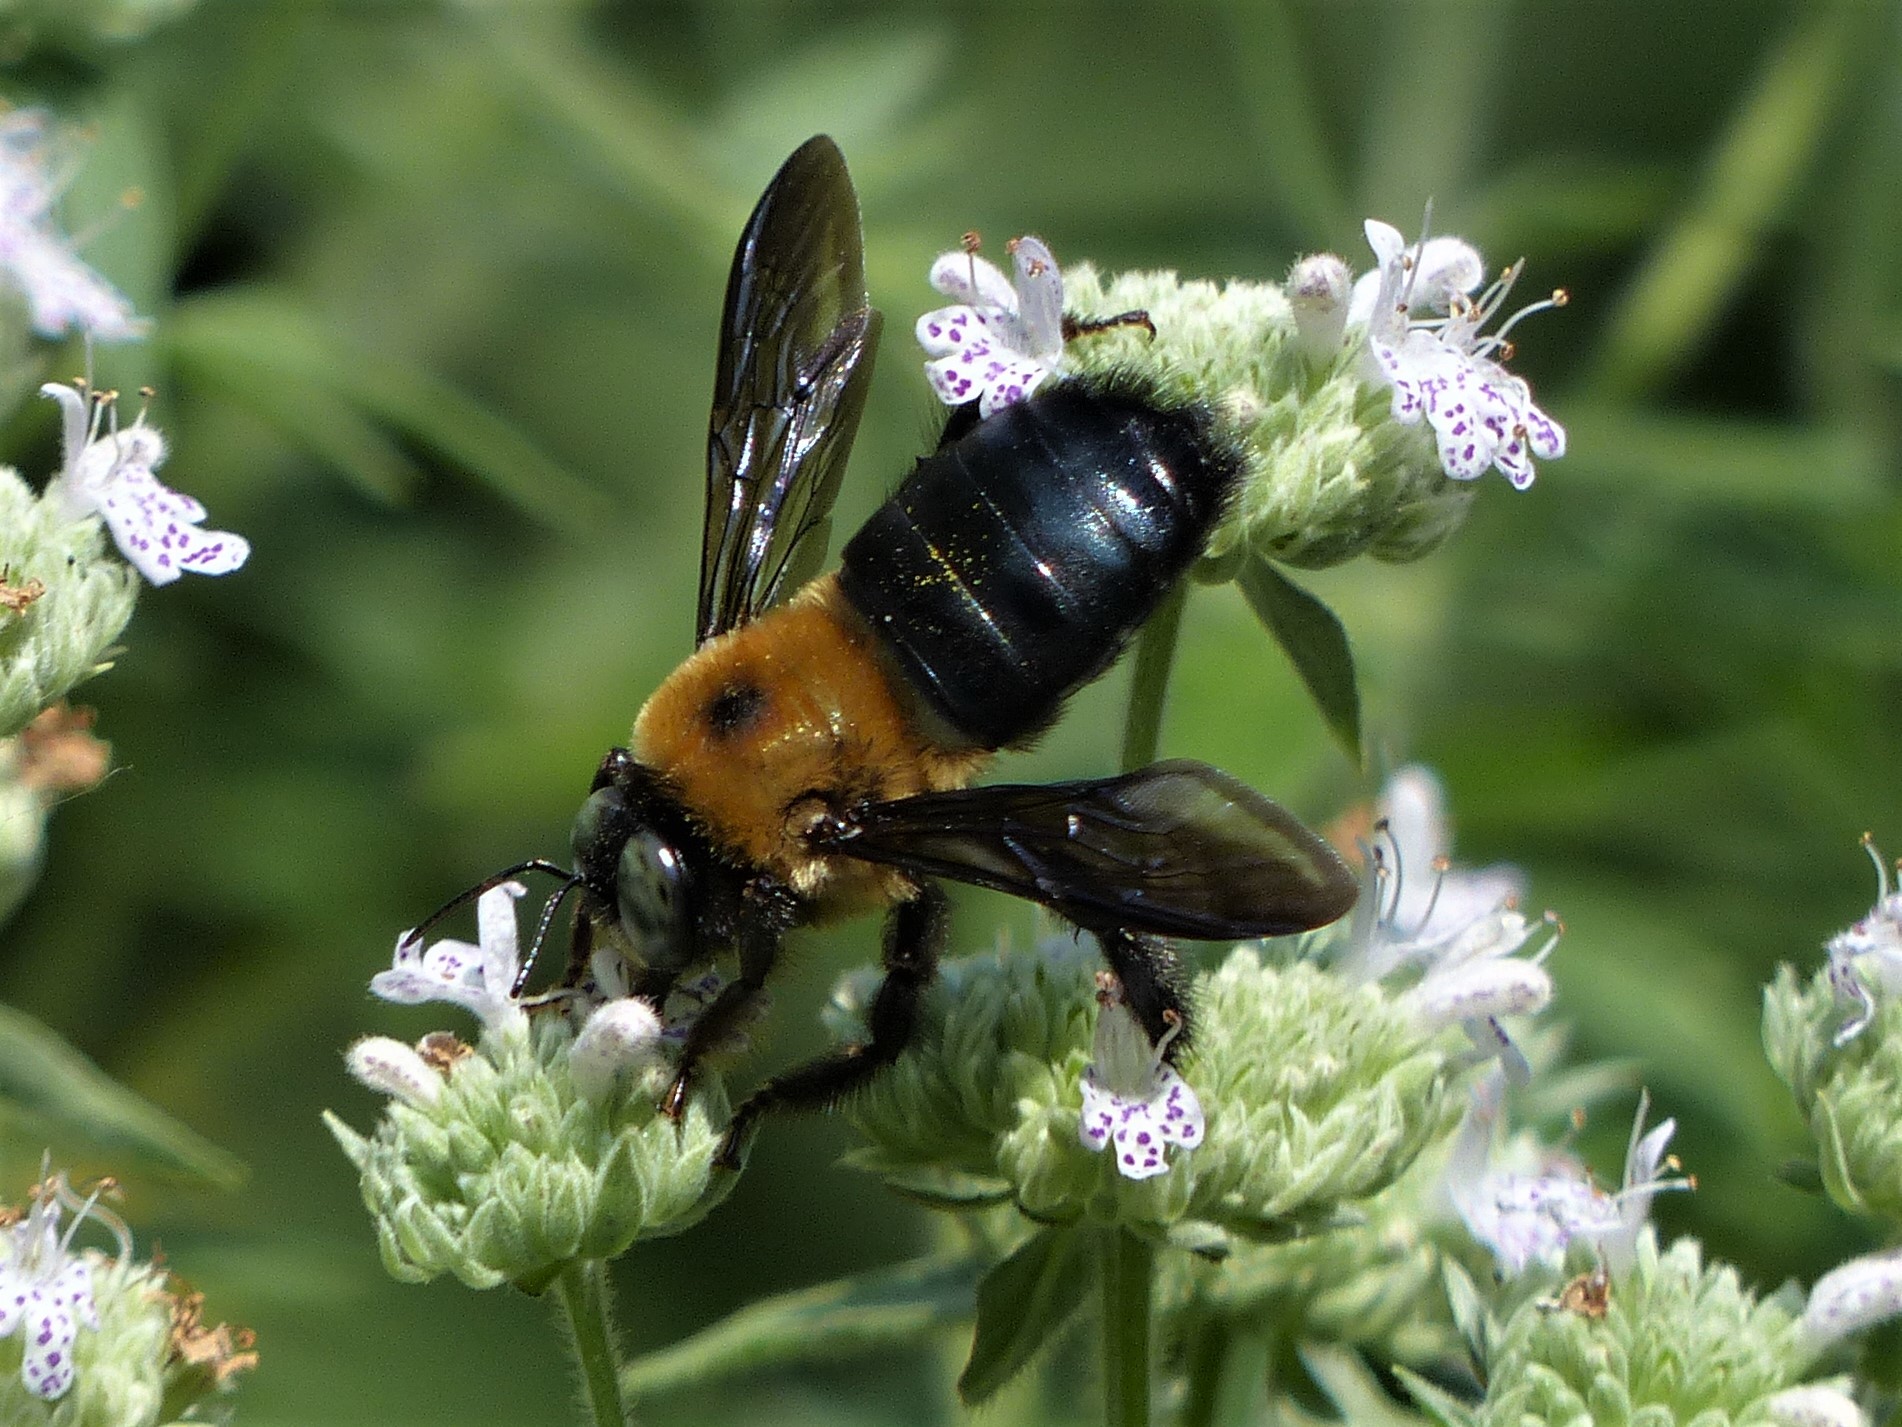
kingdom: Animalia
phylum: Arthropoda
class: Insecta
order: Hymenoptera
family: Apidae
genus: Xylocopa
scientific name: Xylocopa virginica
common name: Carpenter bee
